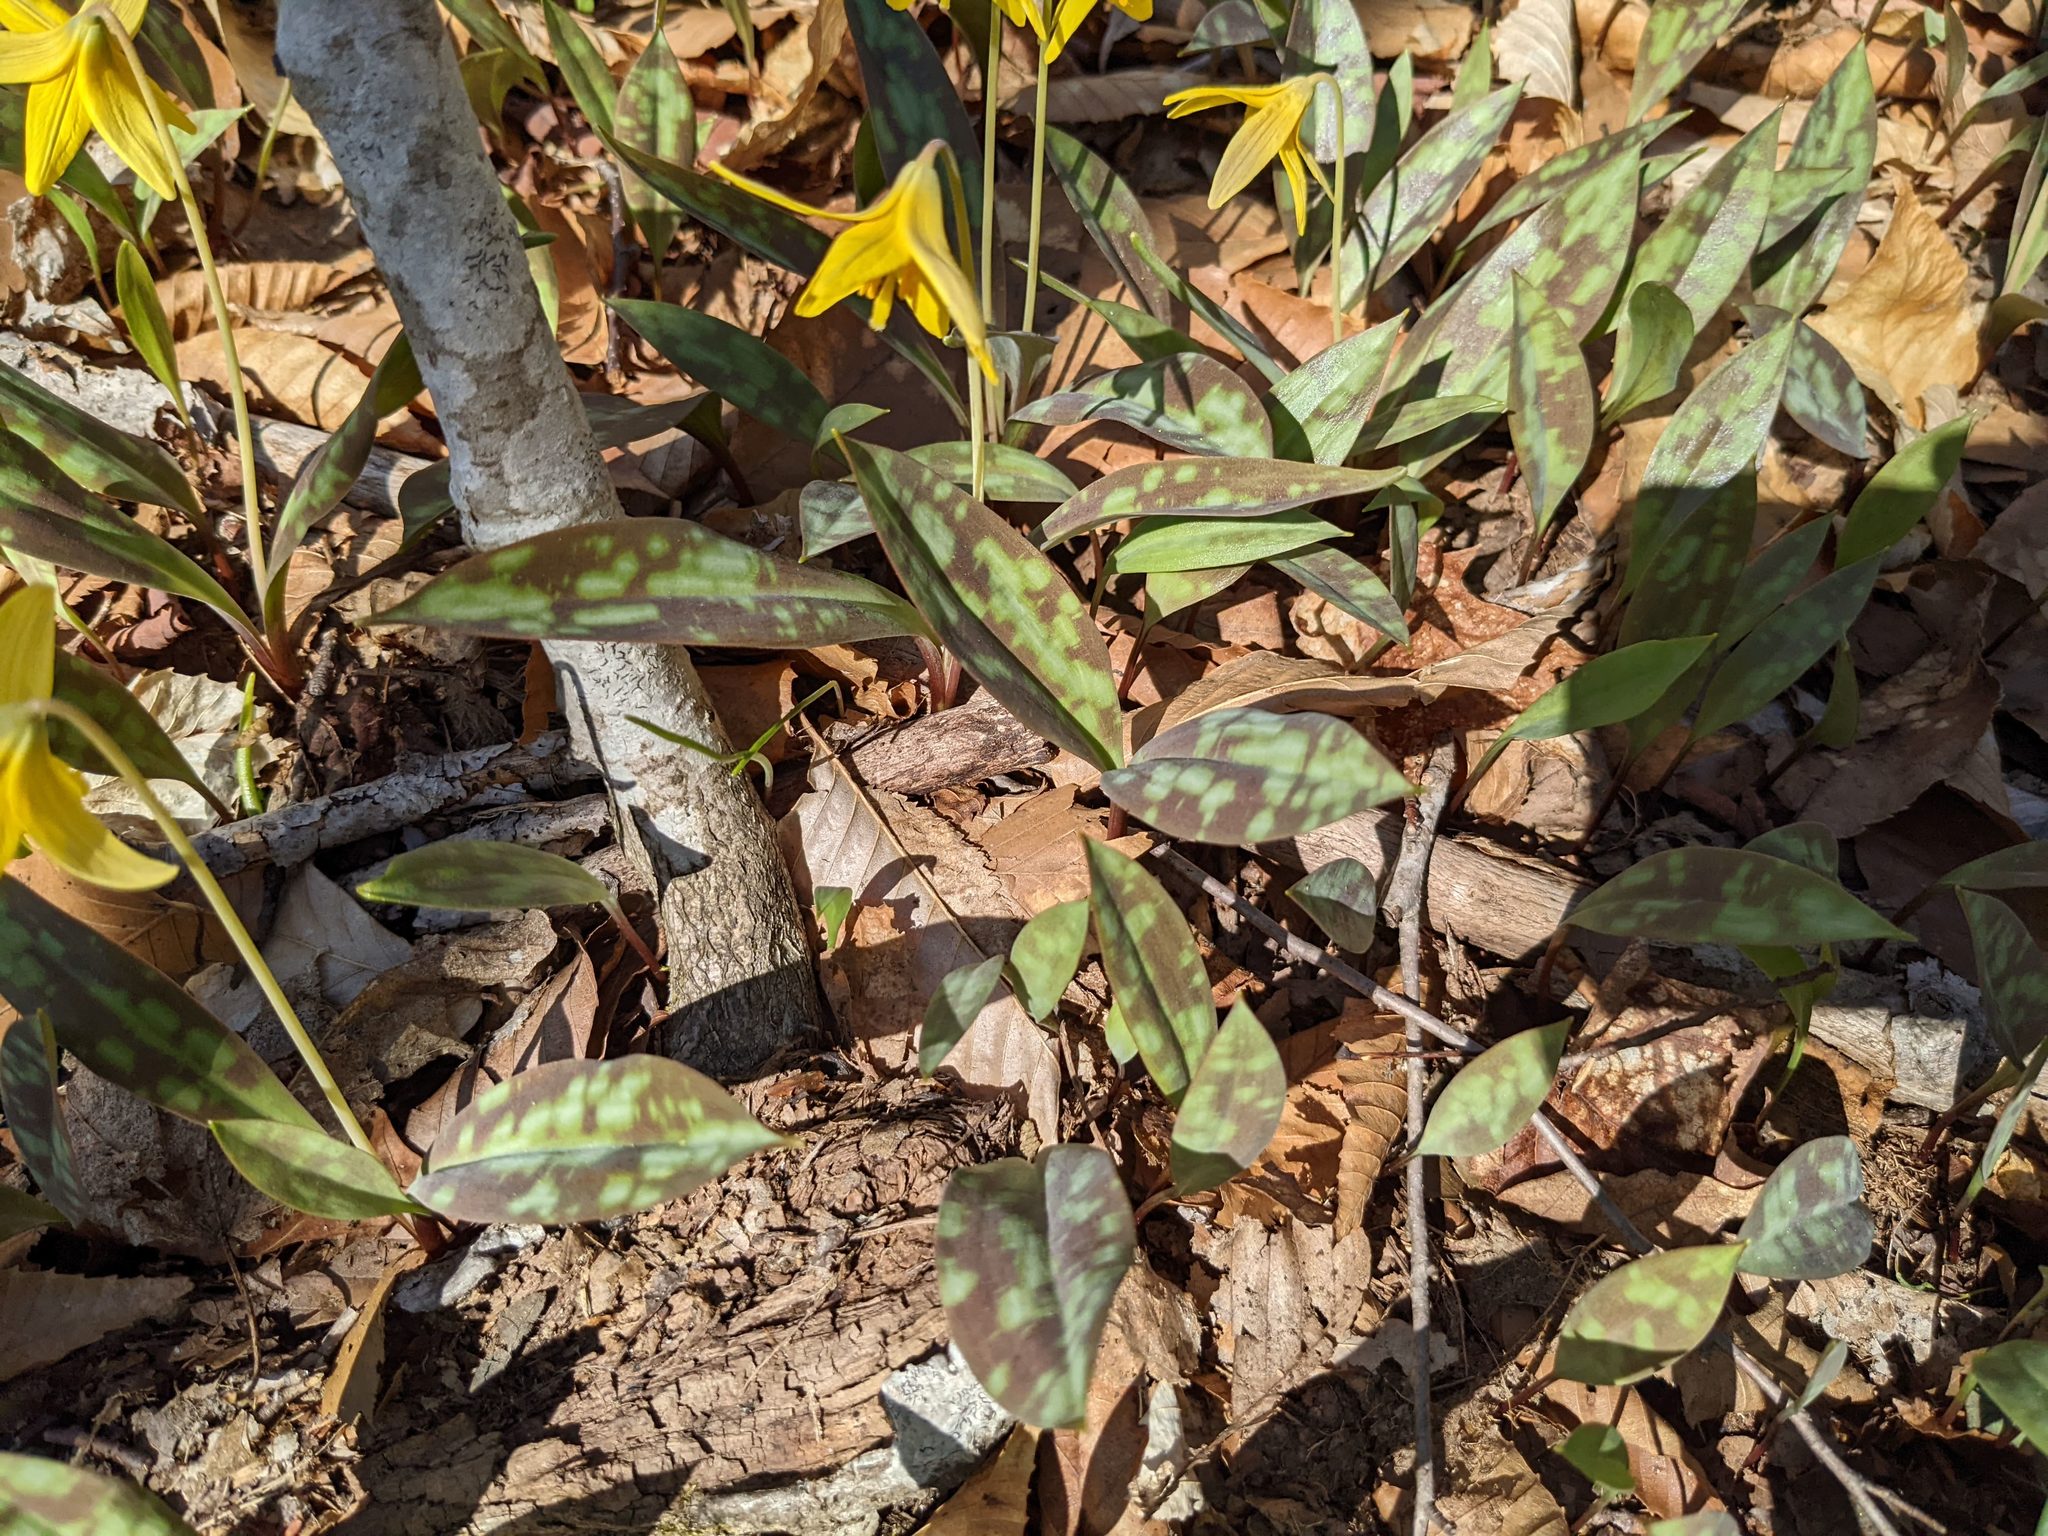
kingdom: Plantae
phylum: Tracheophyta
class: Liliopsida
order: Liliales
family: Liliaceae
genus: Erythronium
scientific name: Erythronium americanum
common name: Yellow adder's-tongue
